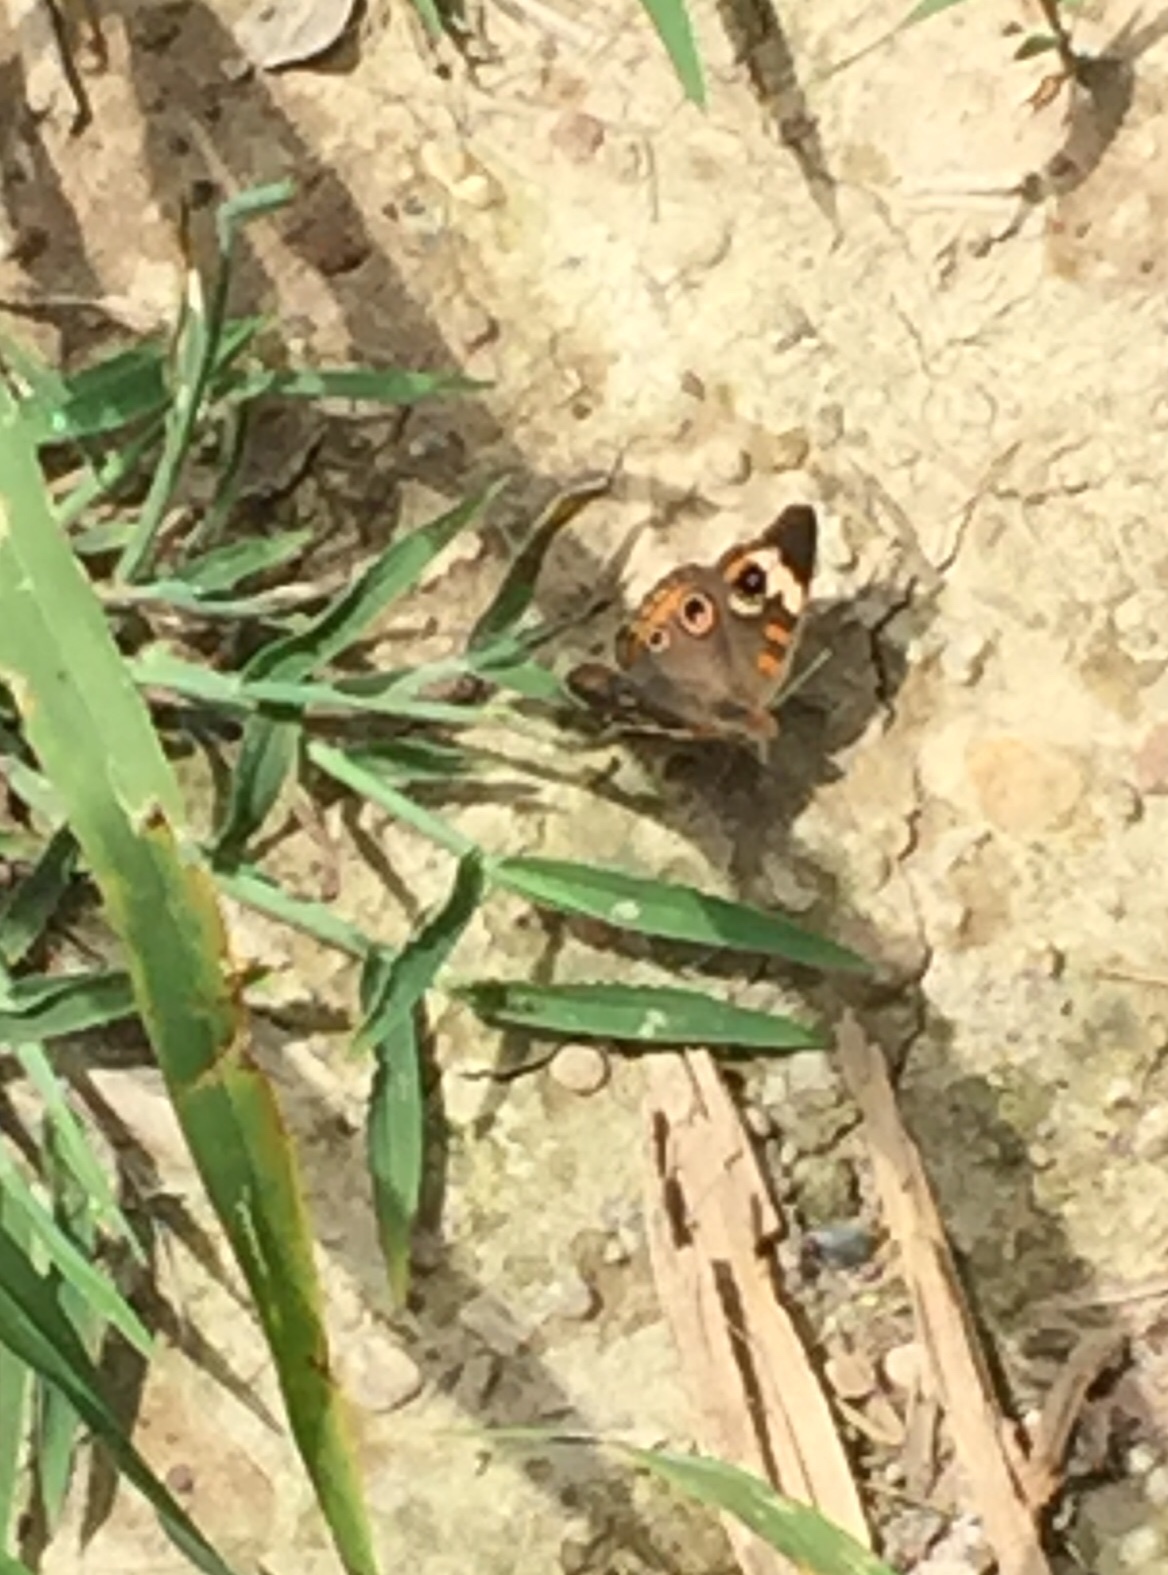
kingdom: Animalia
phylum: Arthropoda
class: Insecta
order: Lepidoptera
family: Nymphalidae
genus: Junonia
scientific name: Junonia coenia
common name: Common buckeye
